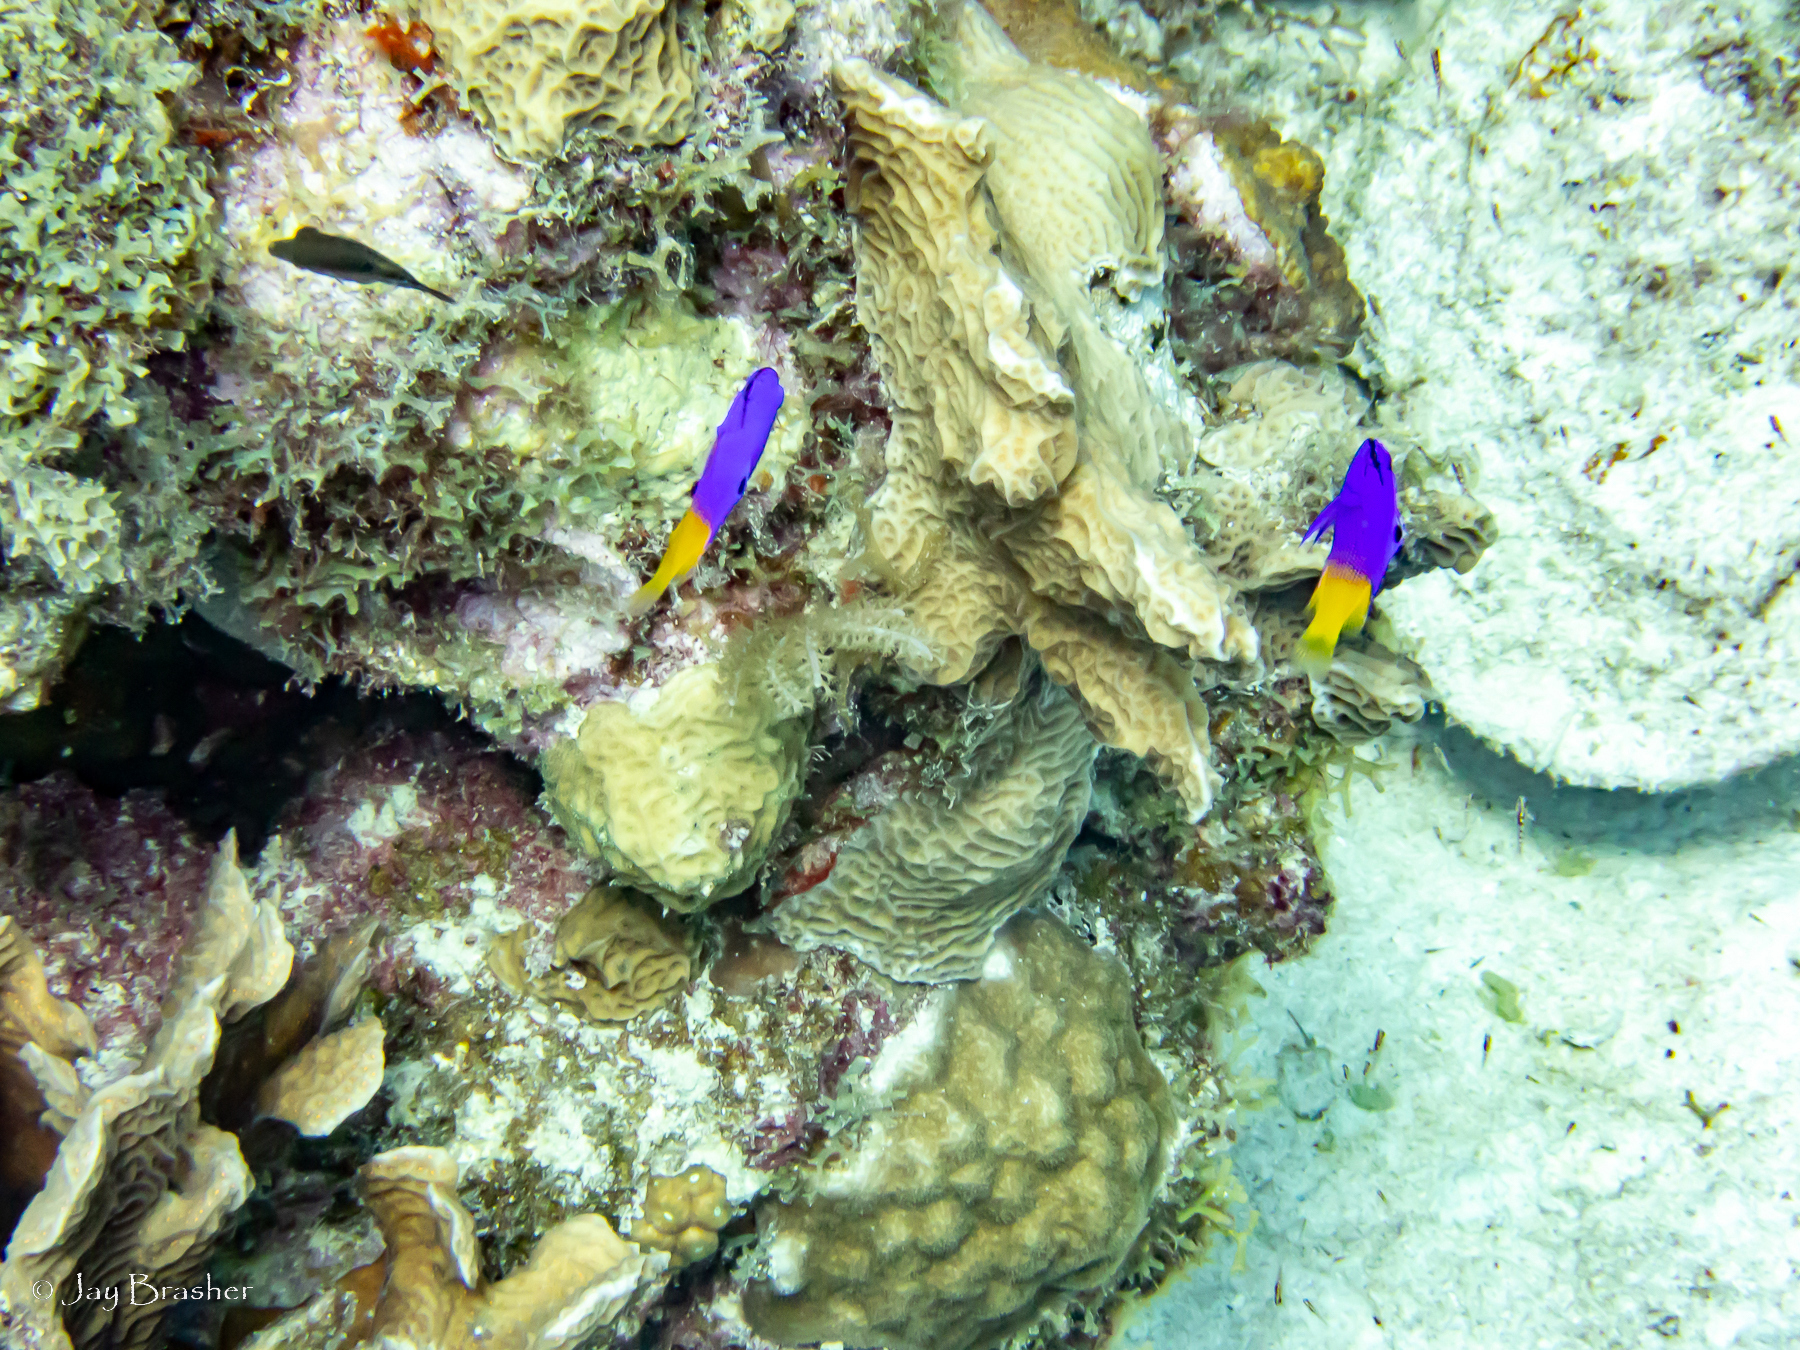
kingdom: Animalia
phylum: Cnidaria
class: Anthozoa
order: Scleractinia
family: Poritidae
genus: Porites
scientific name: Porites astreoides
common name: Mustard hill coral
